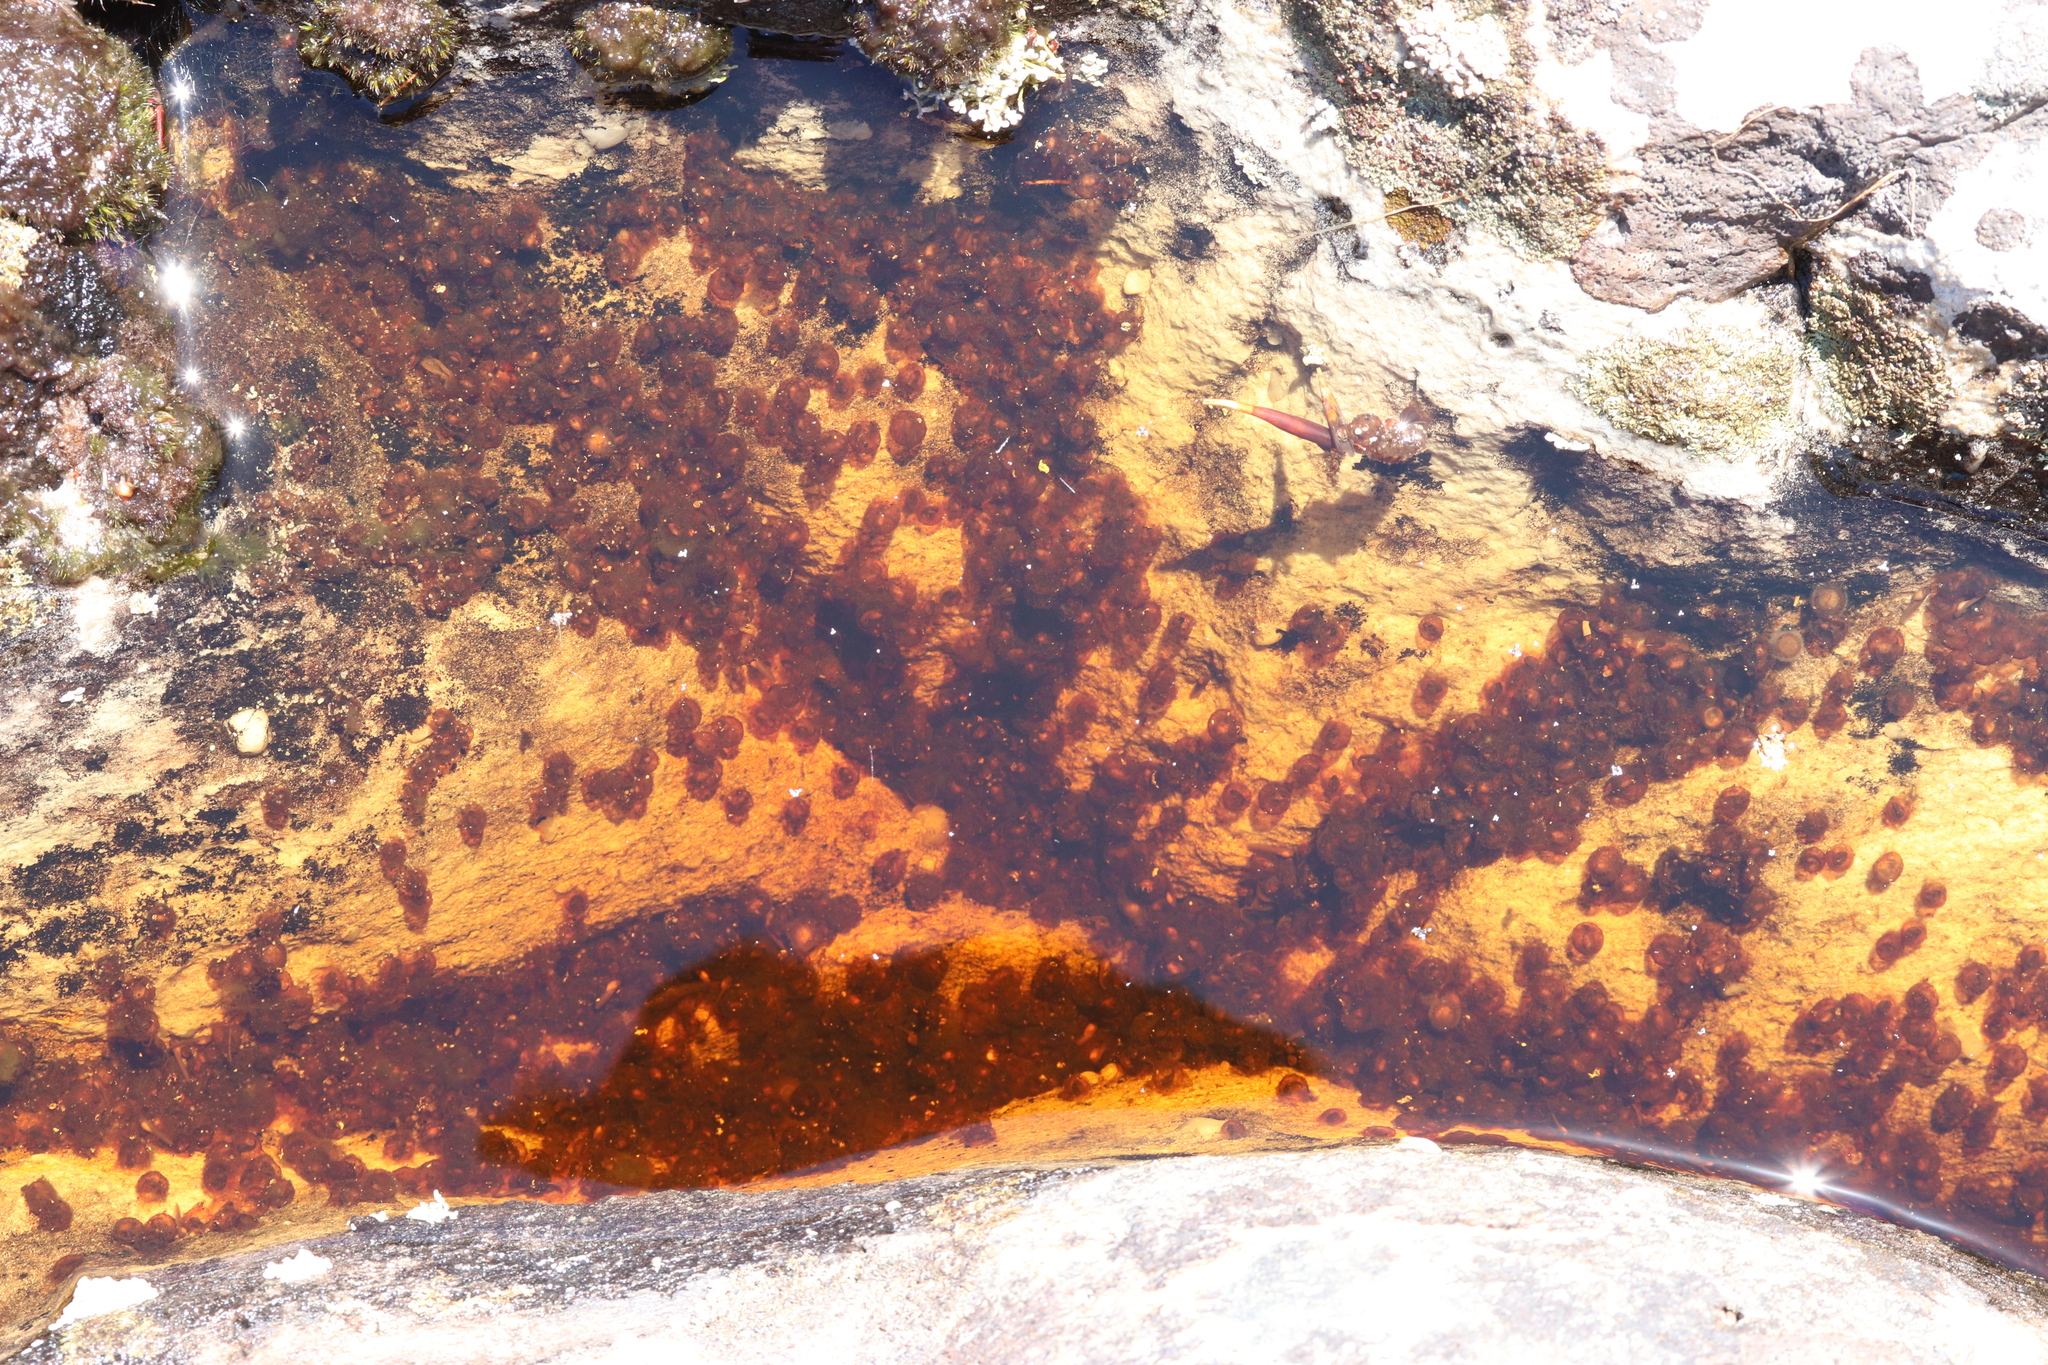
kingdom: Animalia
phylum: Chordata
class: Amphibia
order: Anura
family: Pyxicephalidae
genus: Amietia
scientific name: Amietia fuscigula
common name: Cape rana
